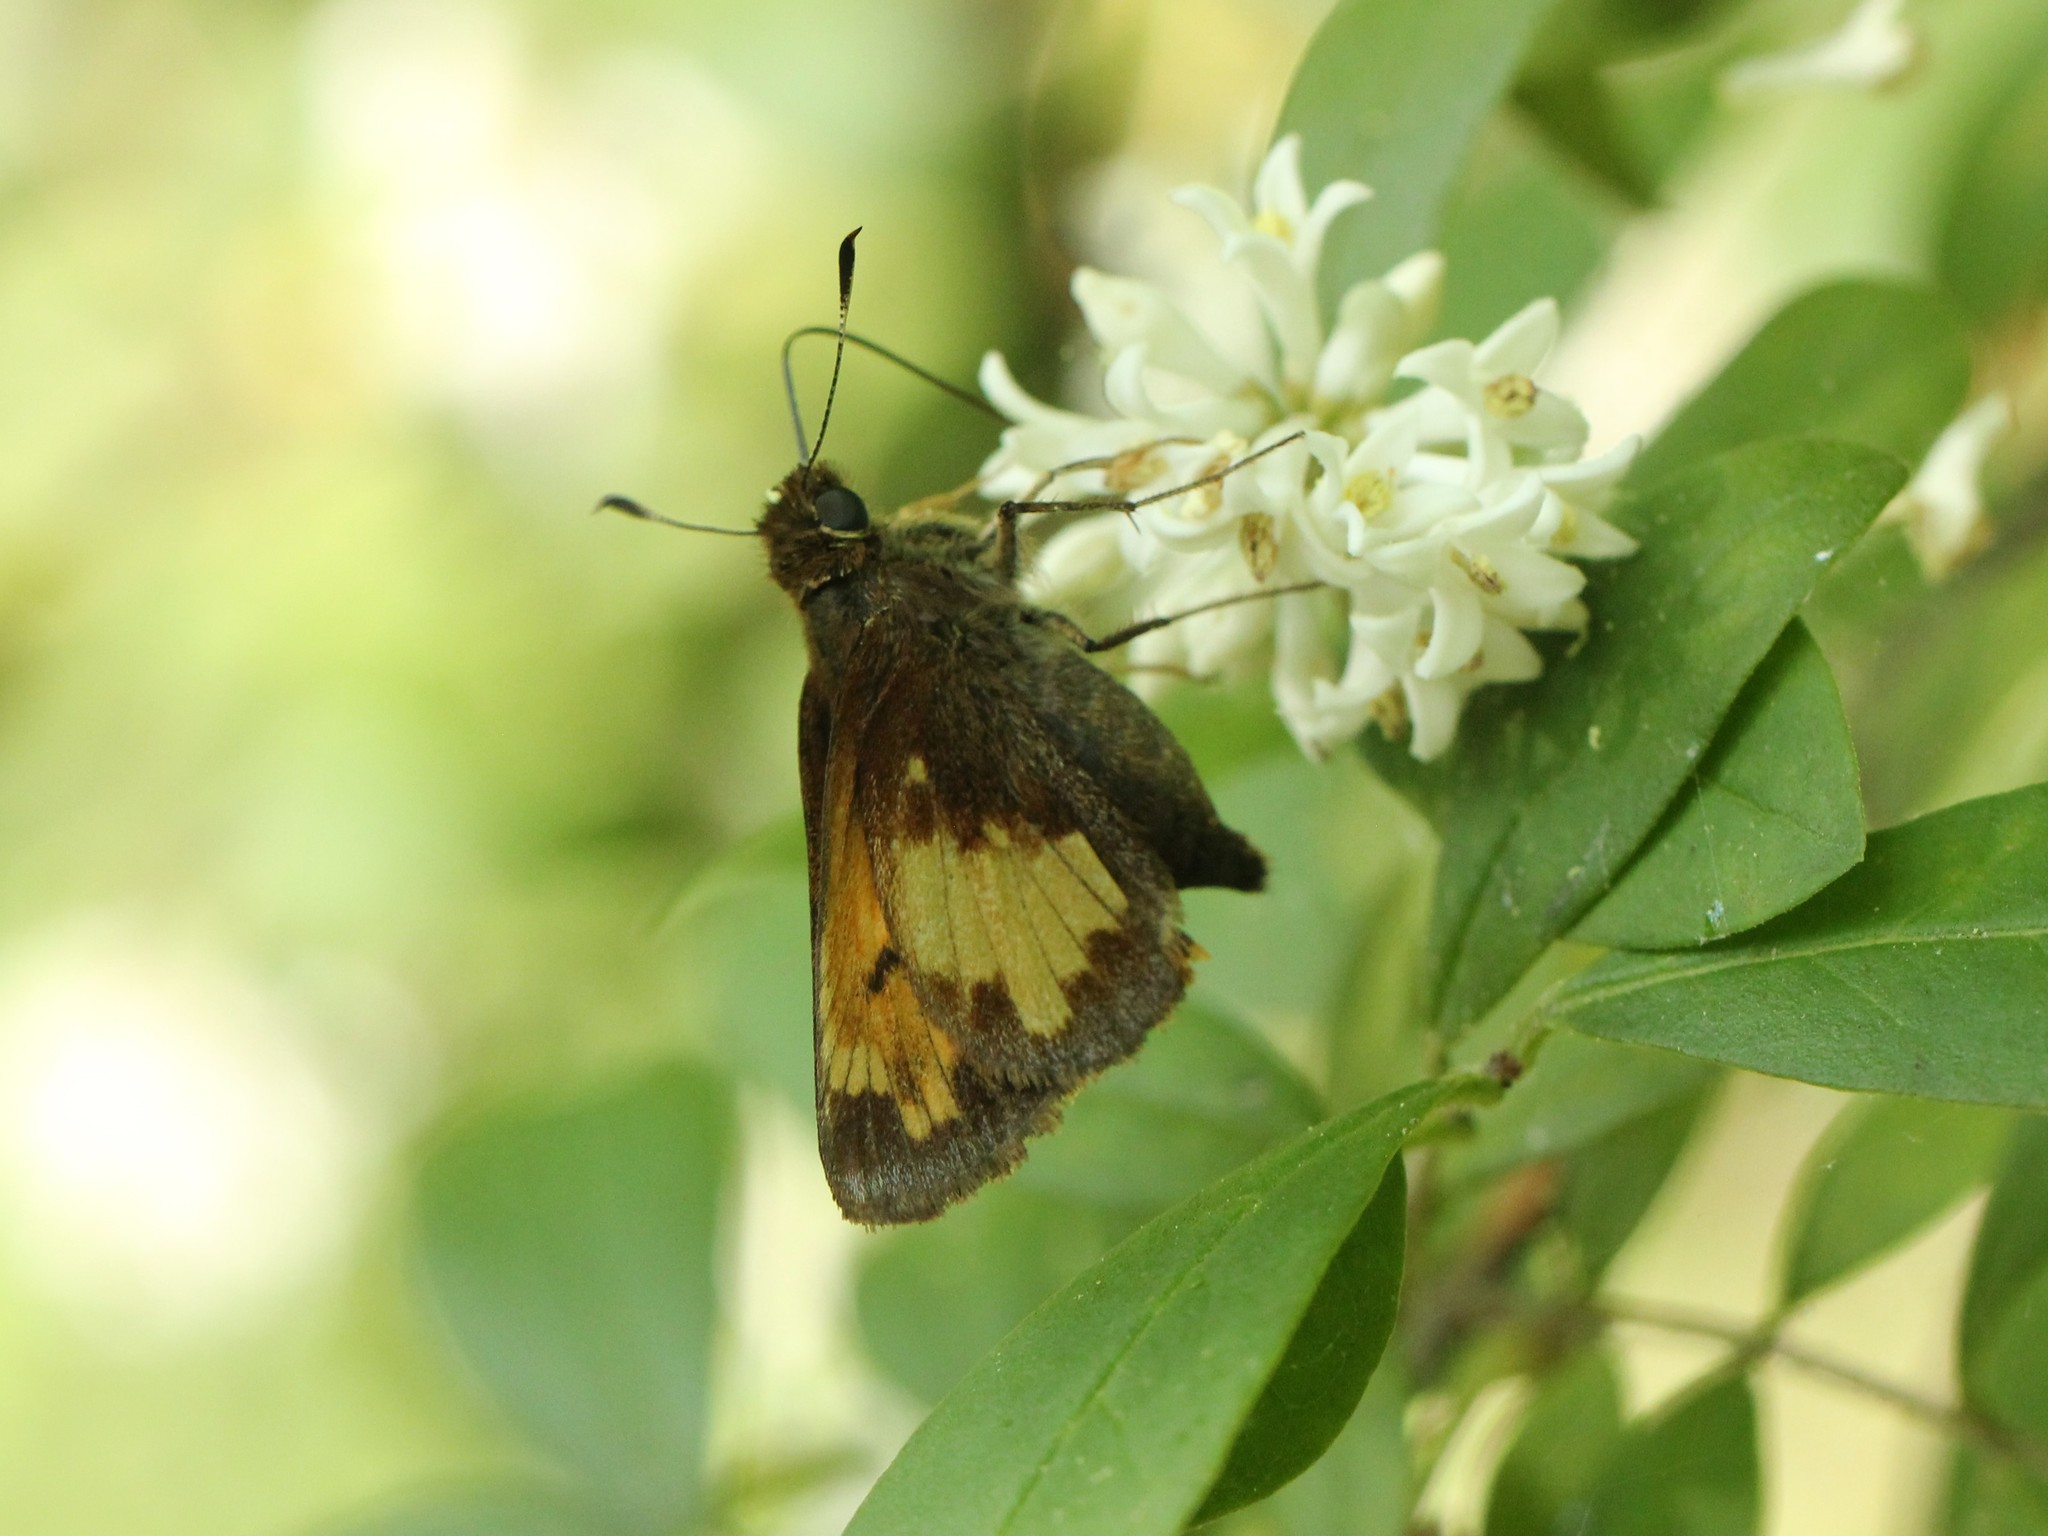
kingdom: Animalia
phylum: Arthropoda
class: Insecta
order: Lepidoptera
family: Hesperiidae
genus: Lon
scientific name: Lon hobomok
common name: Hobomok skipper
